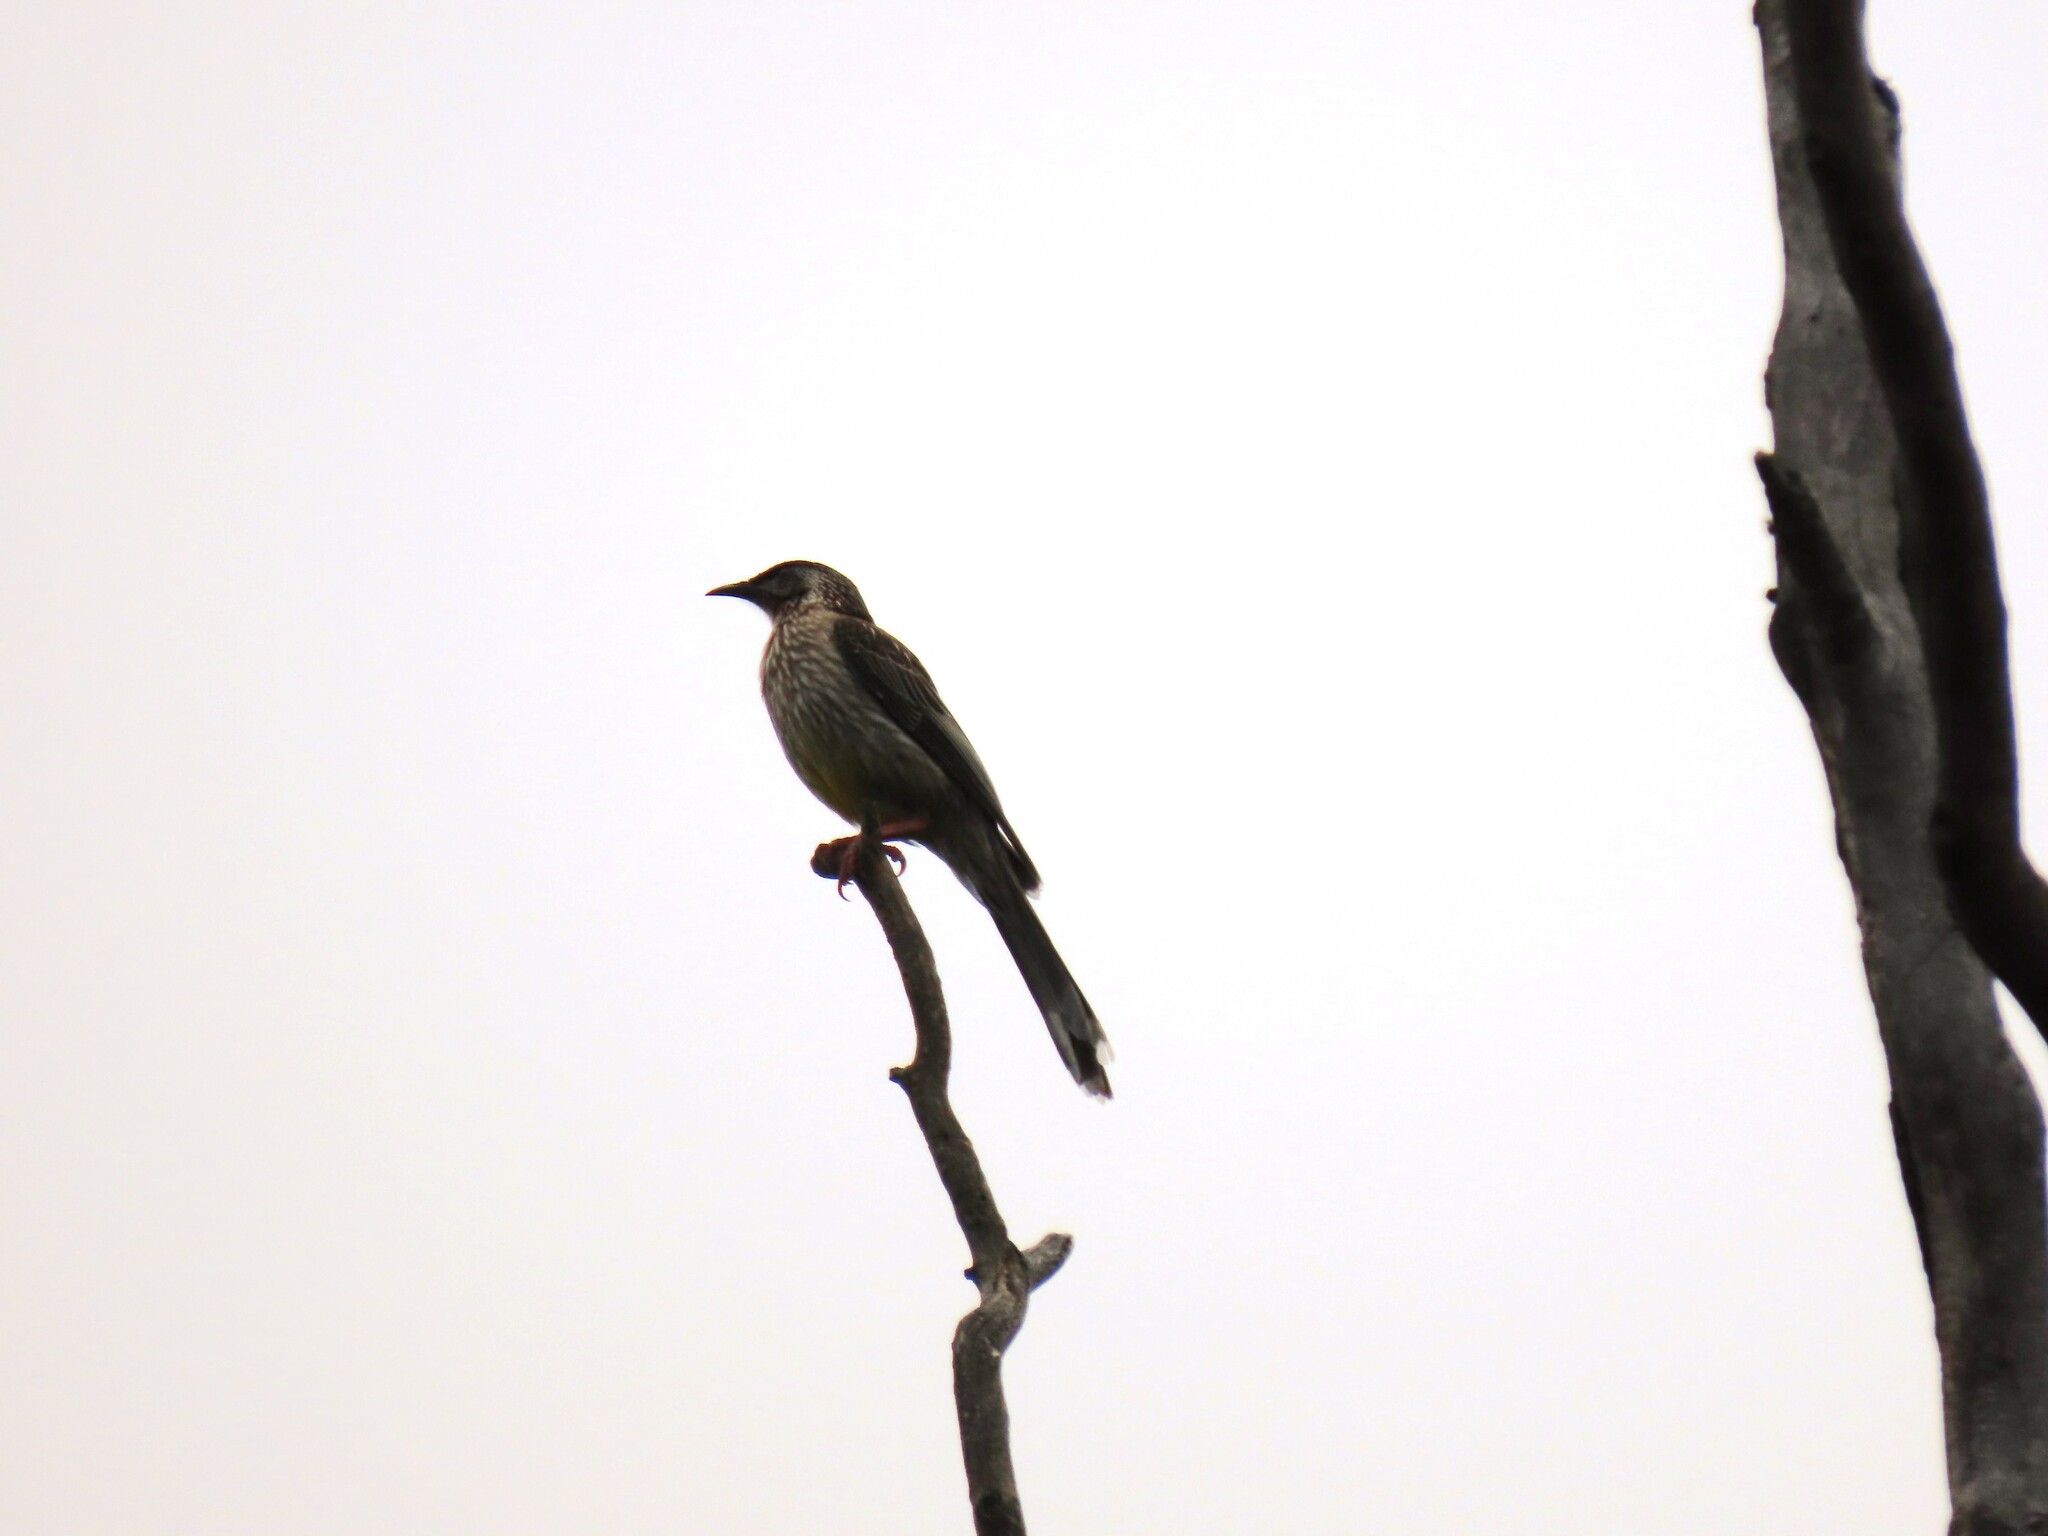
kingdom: Animalia
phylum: Chordata
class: Aves
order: Passeriformes
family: Meliphagidae
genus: Anthochaera
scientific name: Anthochaera carunculata
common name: Red wattlebird
